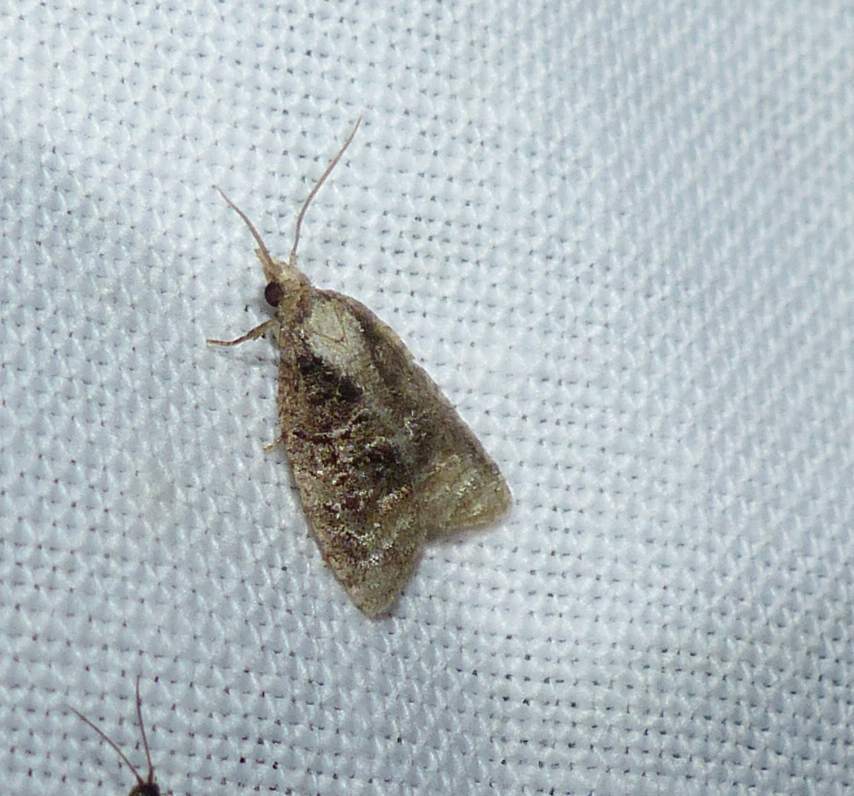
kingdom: Animalia
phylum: Arthropoda
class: Insecta
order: Lepidoptera
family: Tortricidae
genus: Platynota
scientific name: Platynota exasperatana
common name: Exasperating platynota moth
